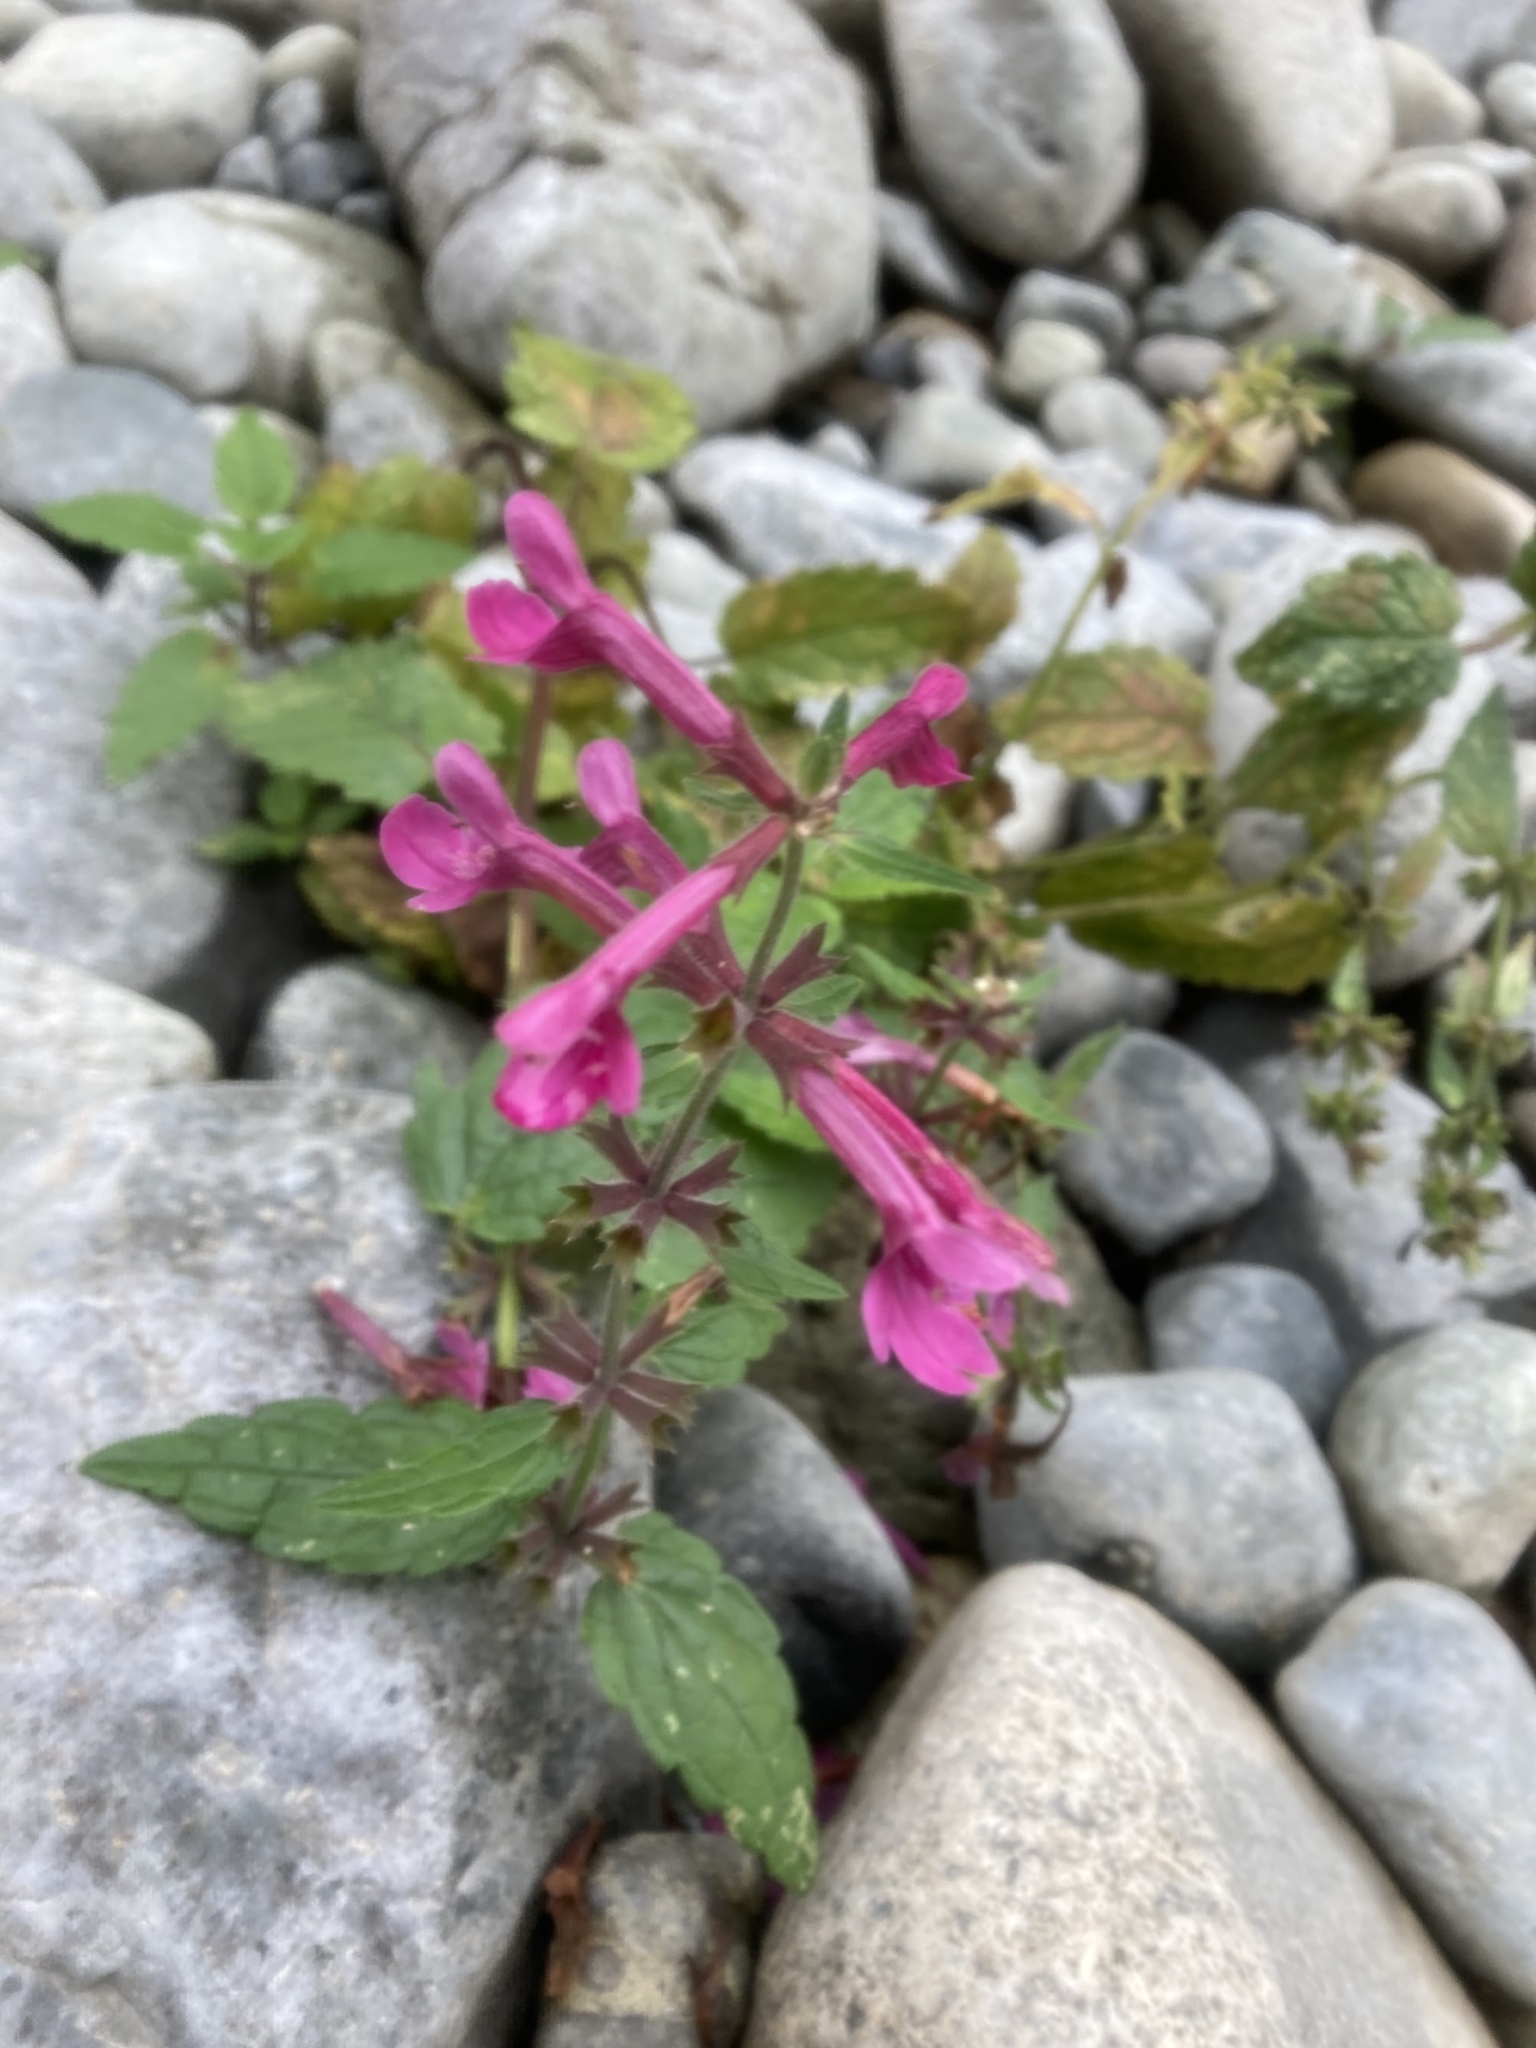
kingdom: Plantae
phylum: Tracheophyta
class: Magnoliopsida
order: Lamiales
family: Lamiaceae
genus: Stachys
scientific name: Stachys chamissonis
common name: Coastal hedge-nettle
